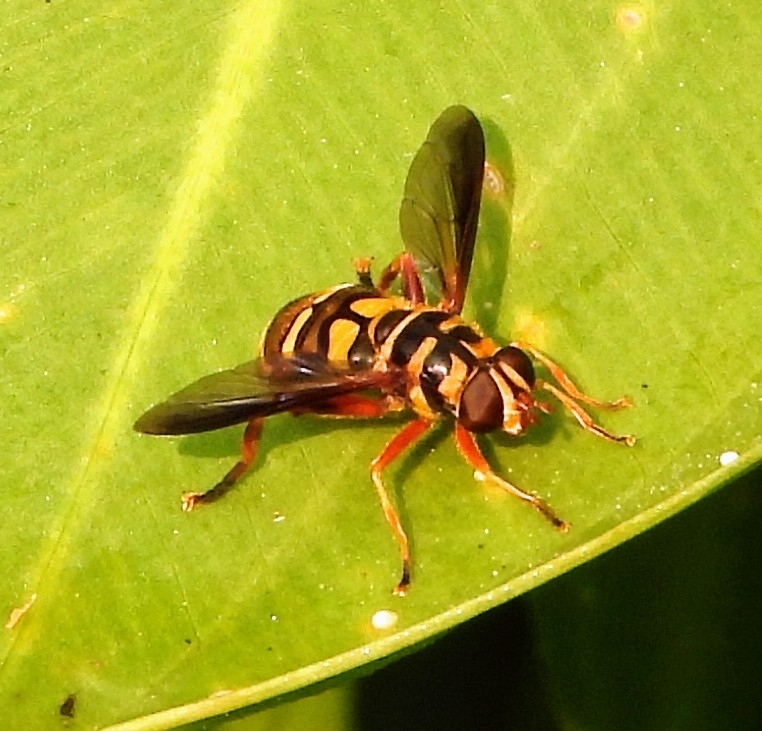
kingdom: Animalia
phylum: Arthropoda
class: Insecta
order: Diptera
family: Syrphidae
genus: Milesia
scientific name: Milesia virginiensis
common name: Virginia giant
